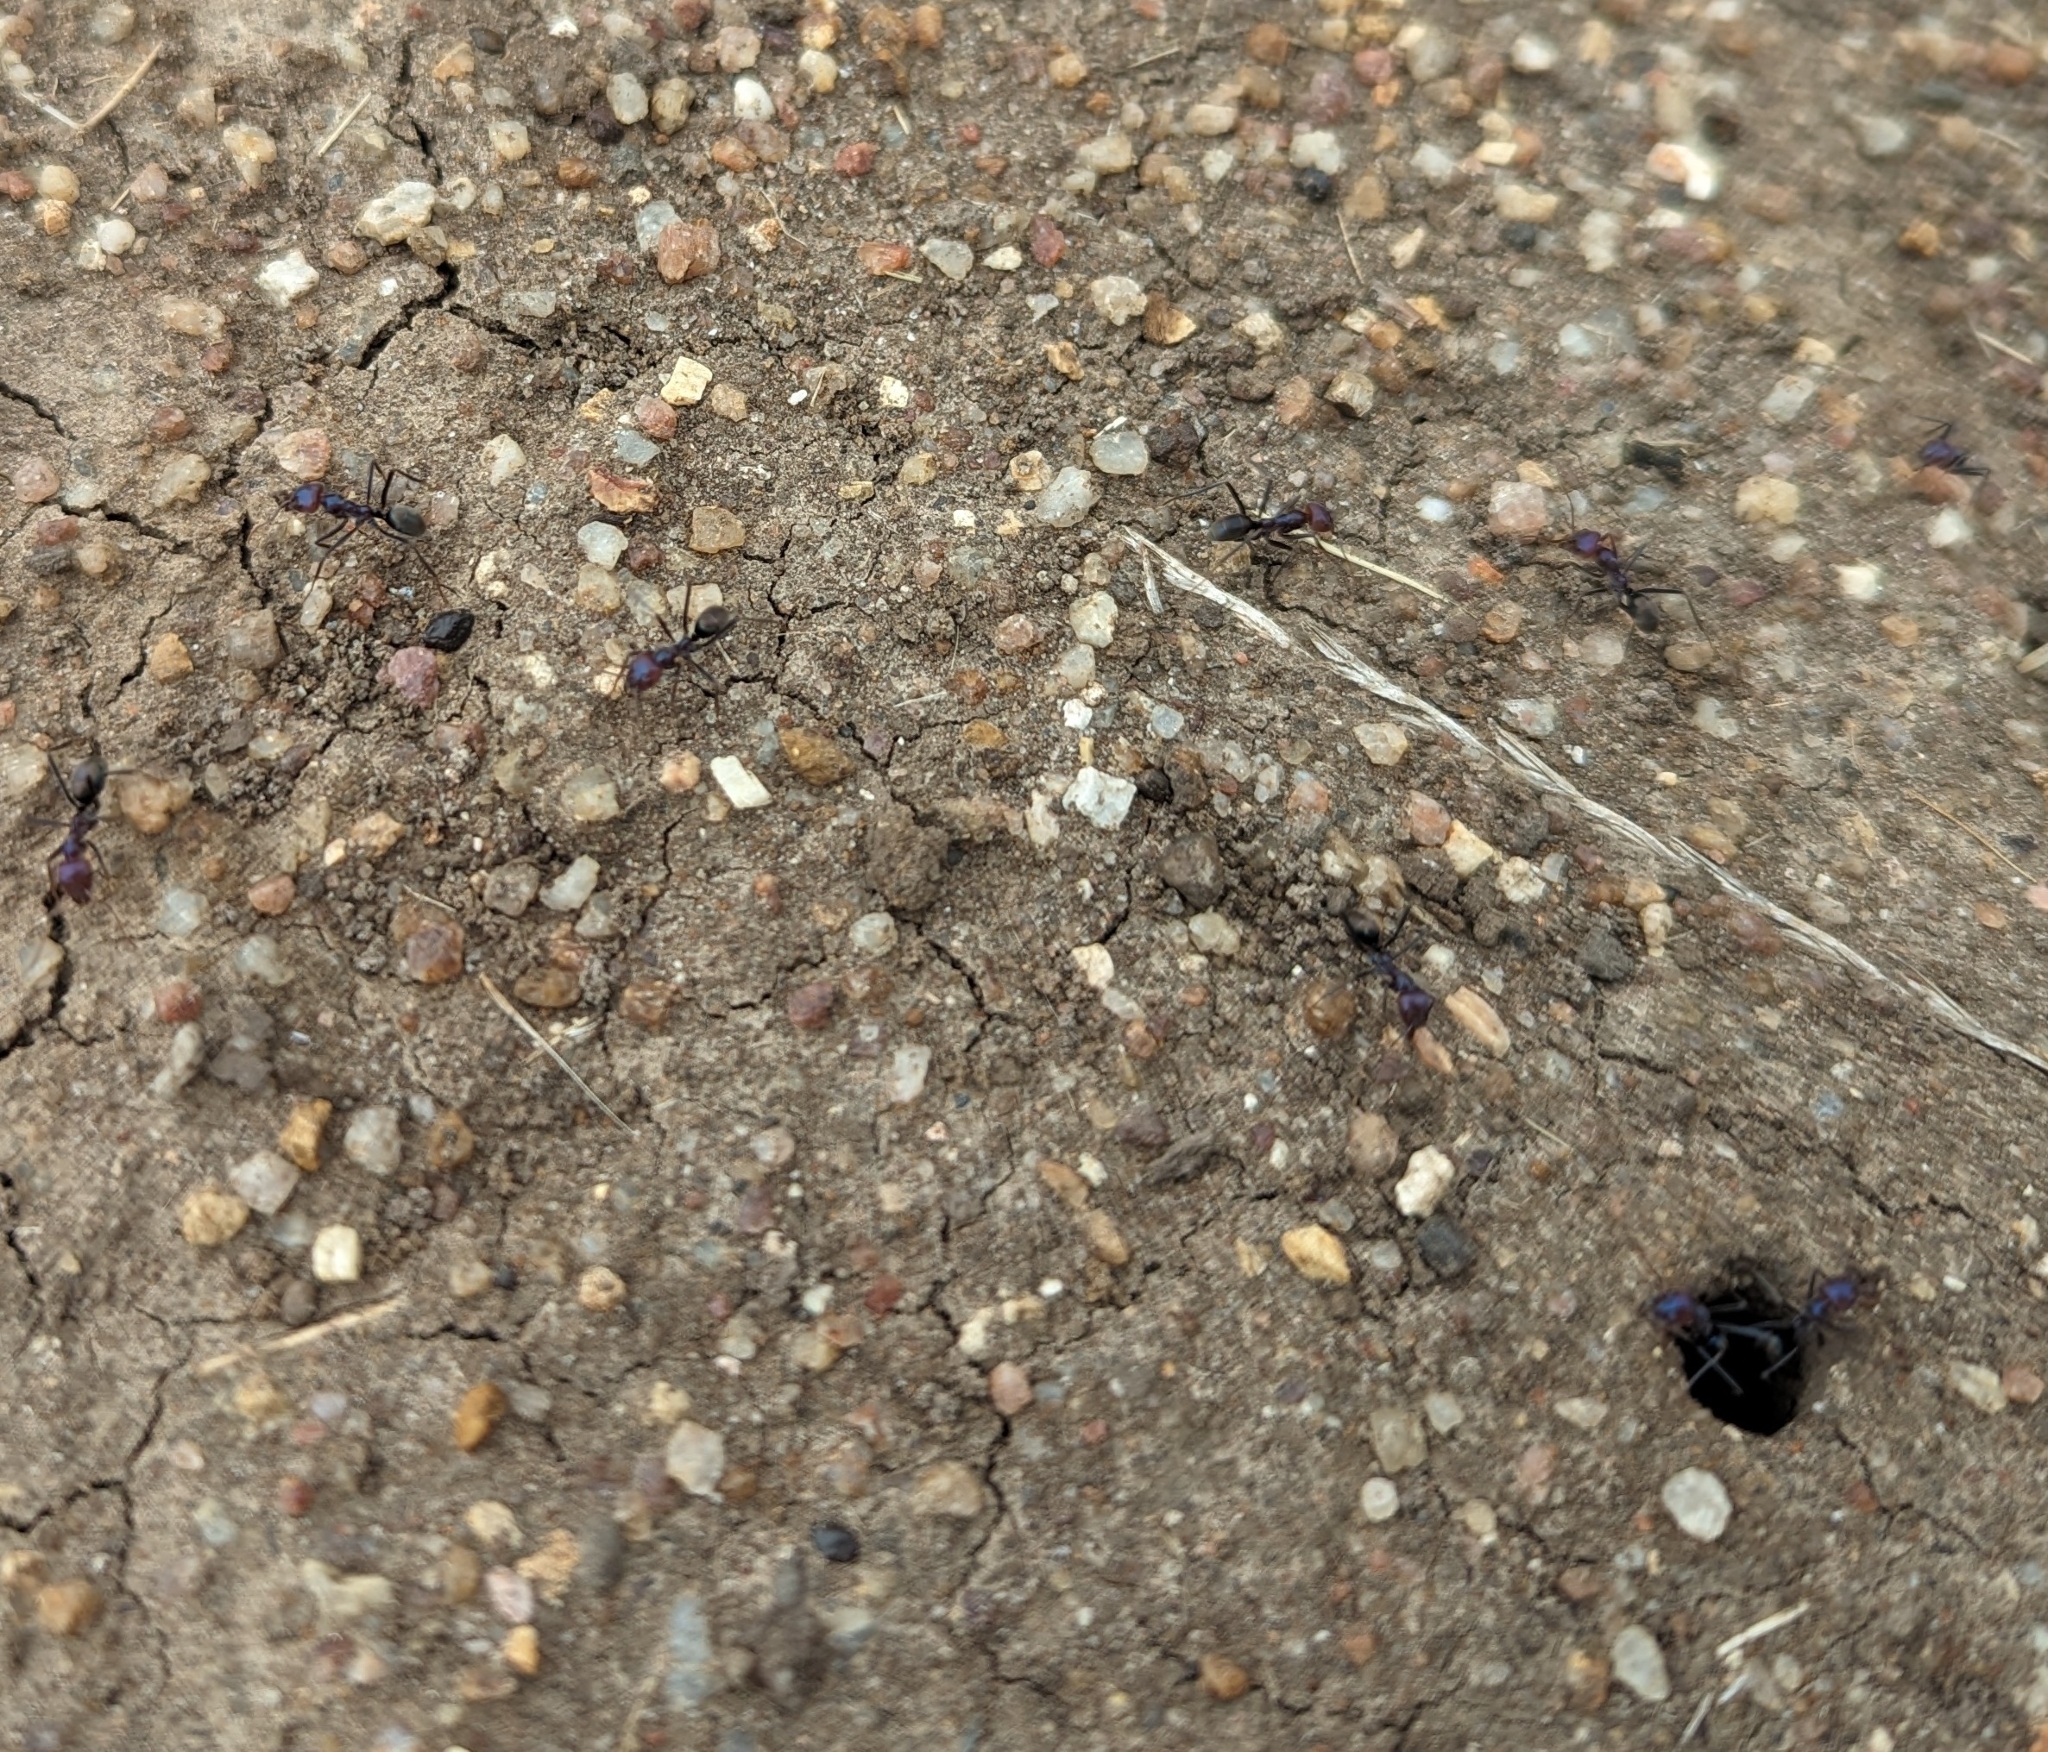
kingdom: Animalia
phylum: Arthropoda
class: Insecta
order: Hymenoptera
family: Formicidae
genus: Iridomyrmex
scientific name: Iridomyrmex purpureus
